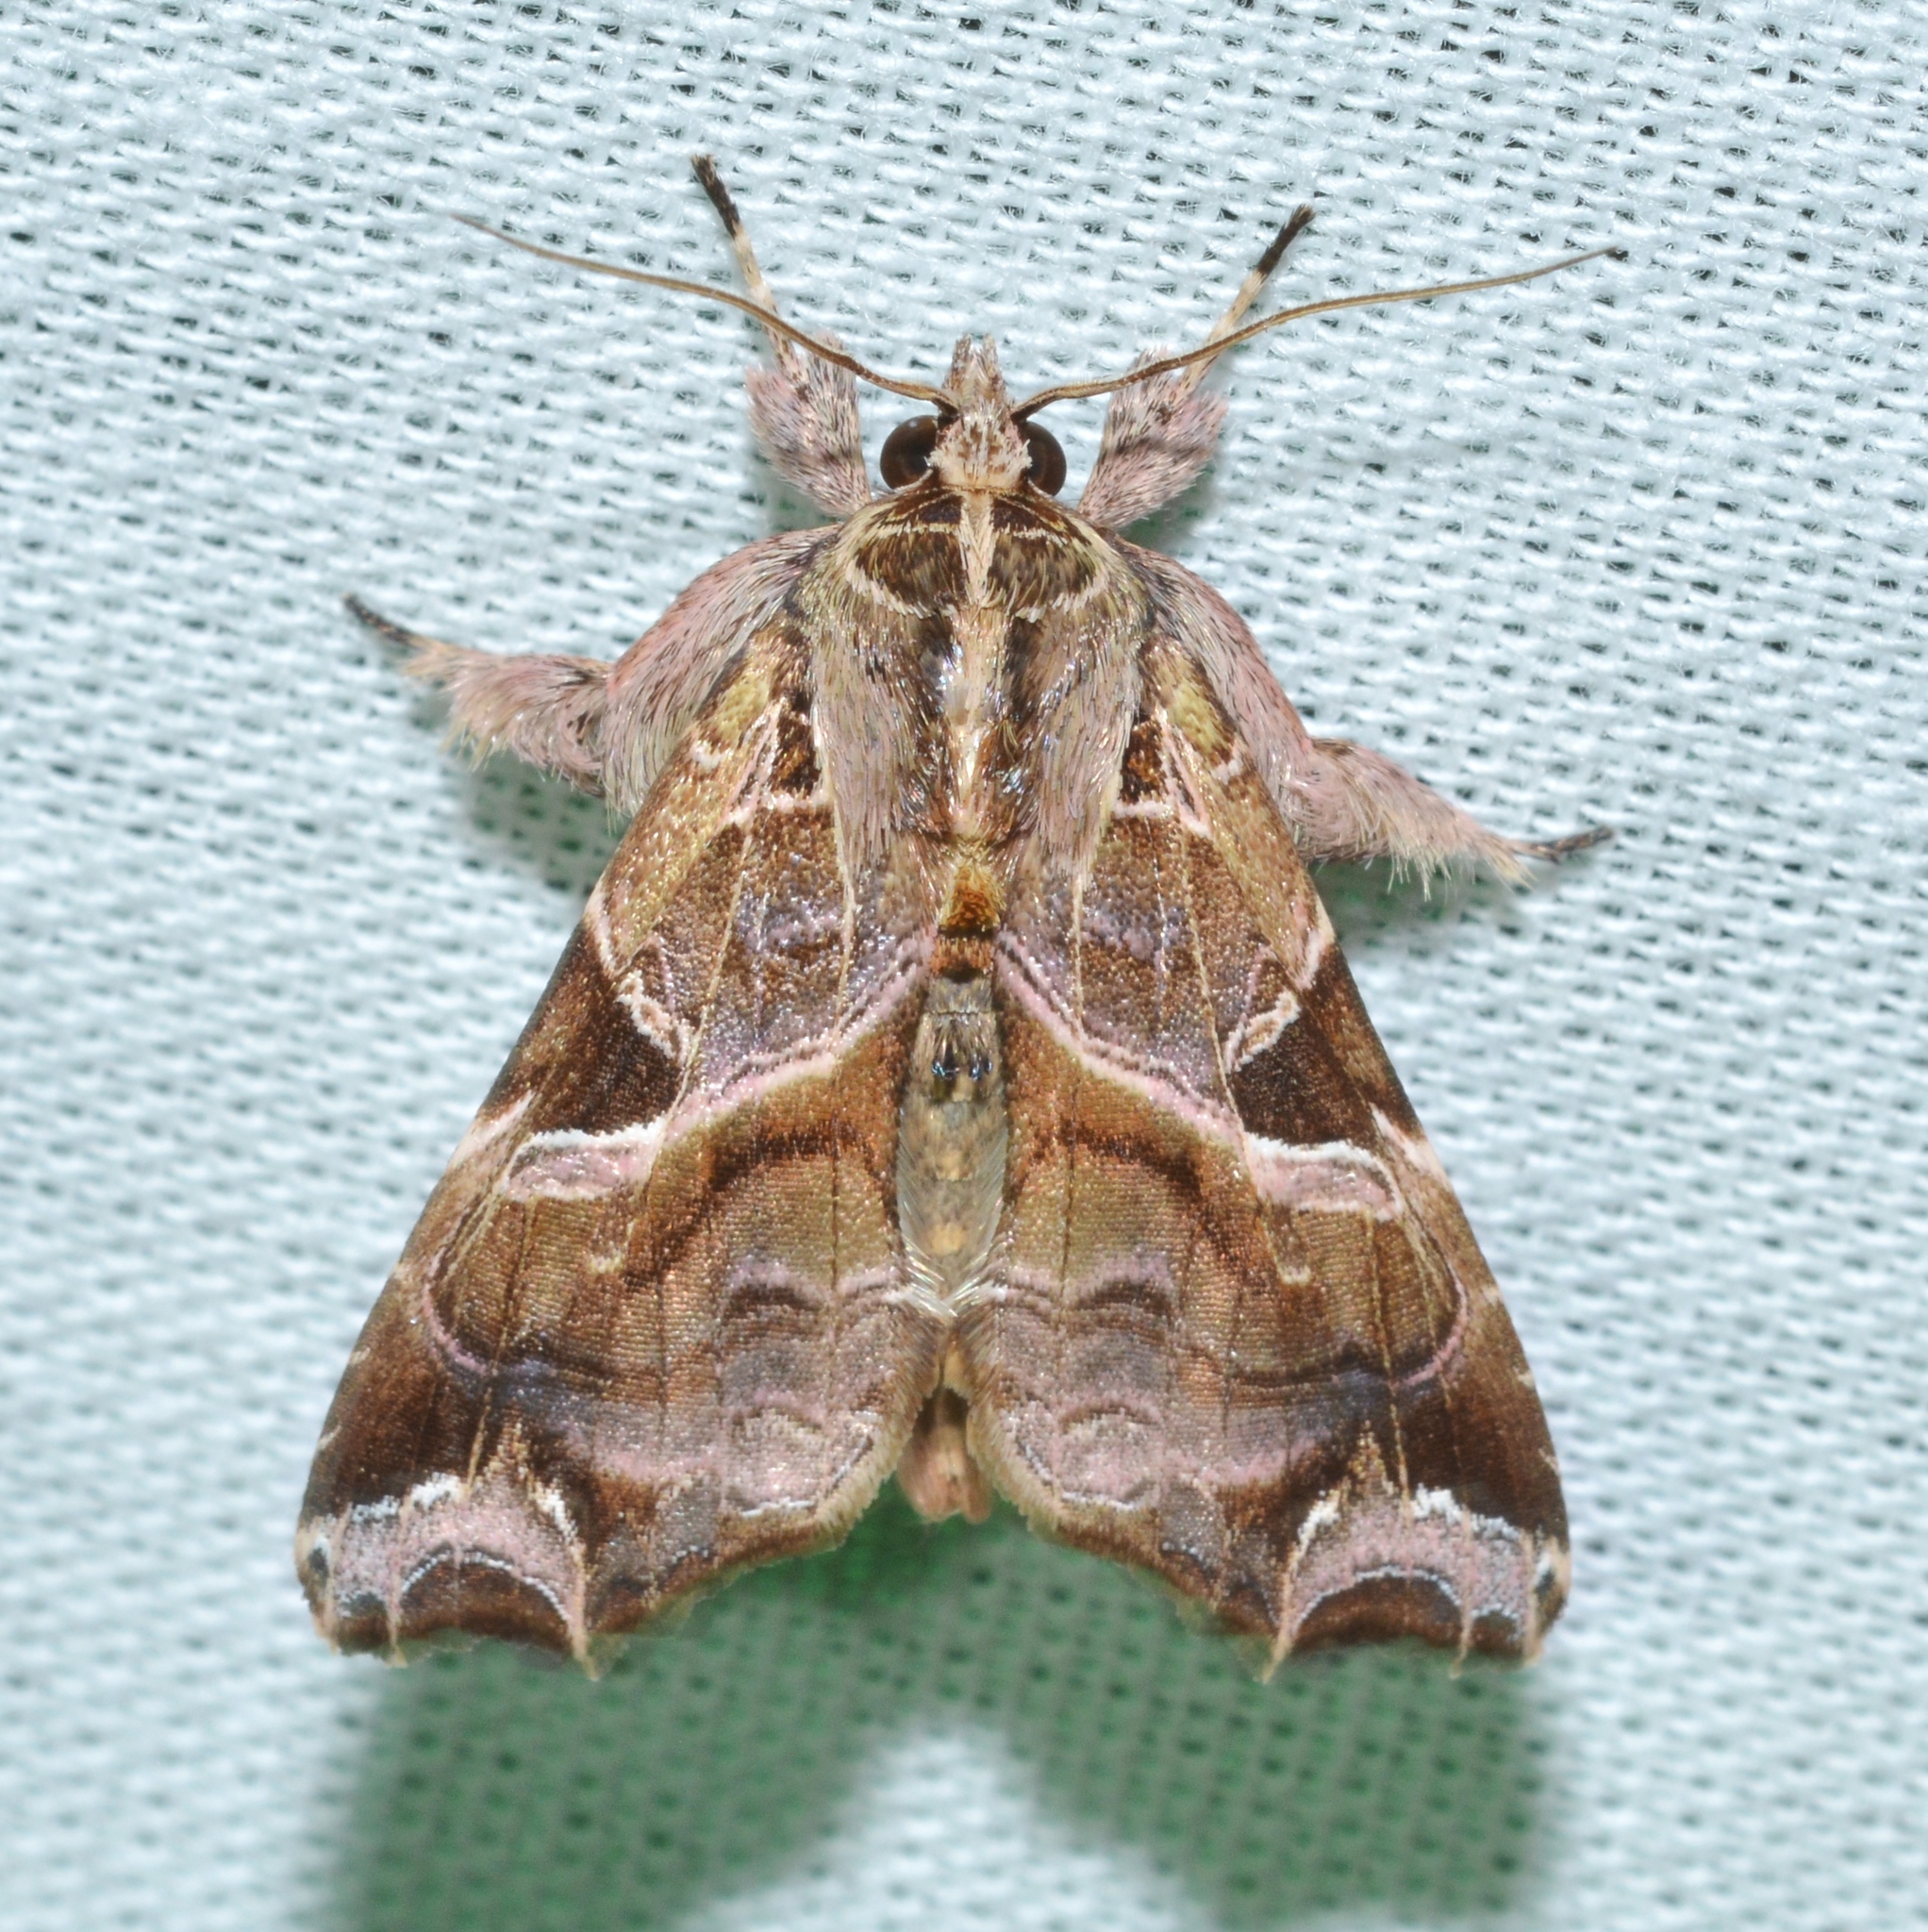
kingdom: Animalia
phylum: Arthropoda
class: Insecta
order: Lepidoptera
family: Noctuidae
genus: Callopistria
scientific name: Callopistria floridensis
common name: Florida fern moth
